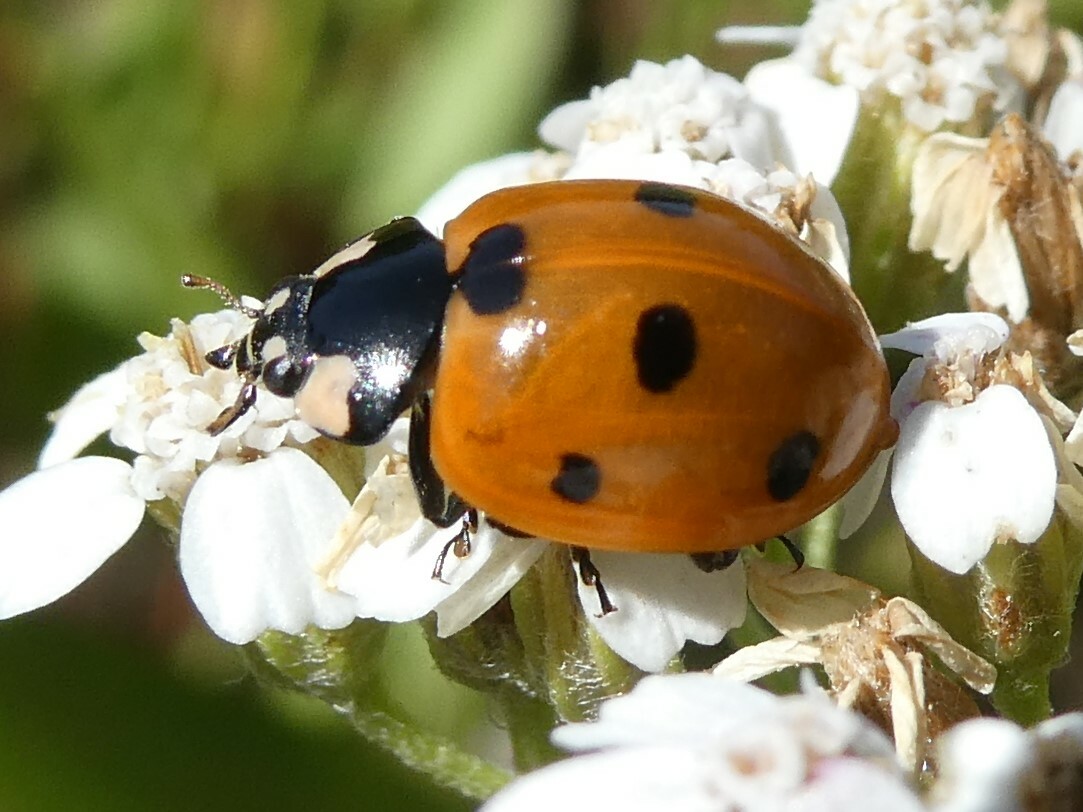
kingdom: Animalia
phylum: Arthropoda
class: Insecta
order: Coleoptera
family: Coccinellidae
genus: Coccinella
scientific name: Coccinella septempunctata
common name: Sevenspotted lady beetle
